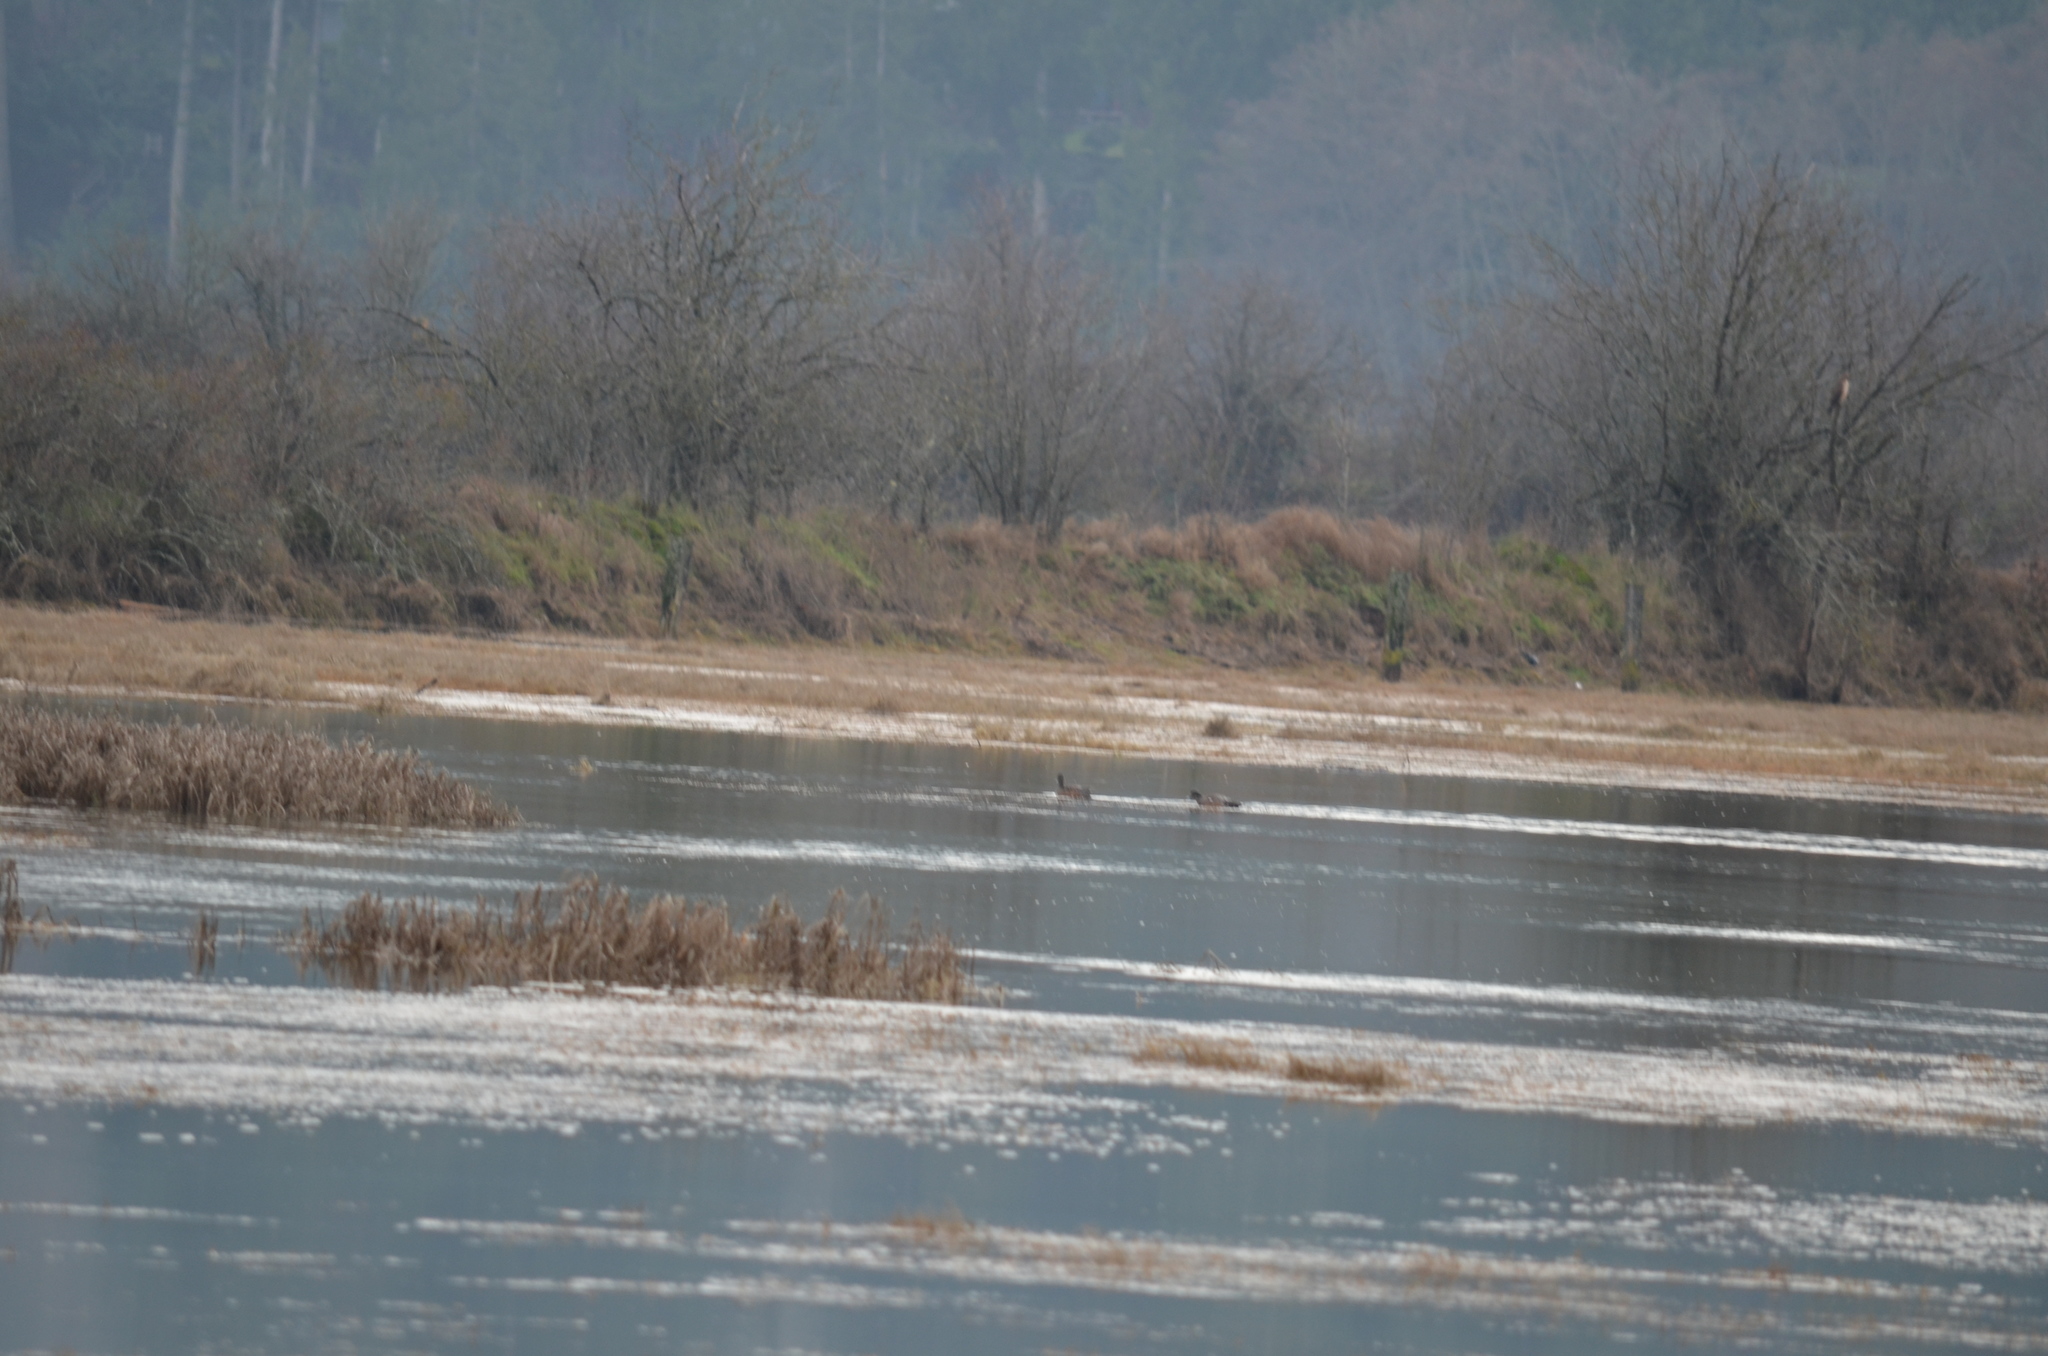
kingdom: Animalia
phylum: Chordata
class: Aves
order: Anseriformes
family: Anatidae
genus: Mareca
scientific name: Mareca americana
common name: American wigeon
